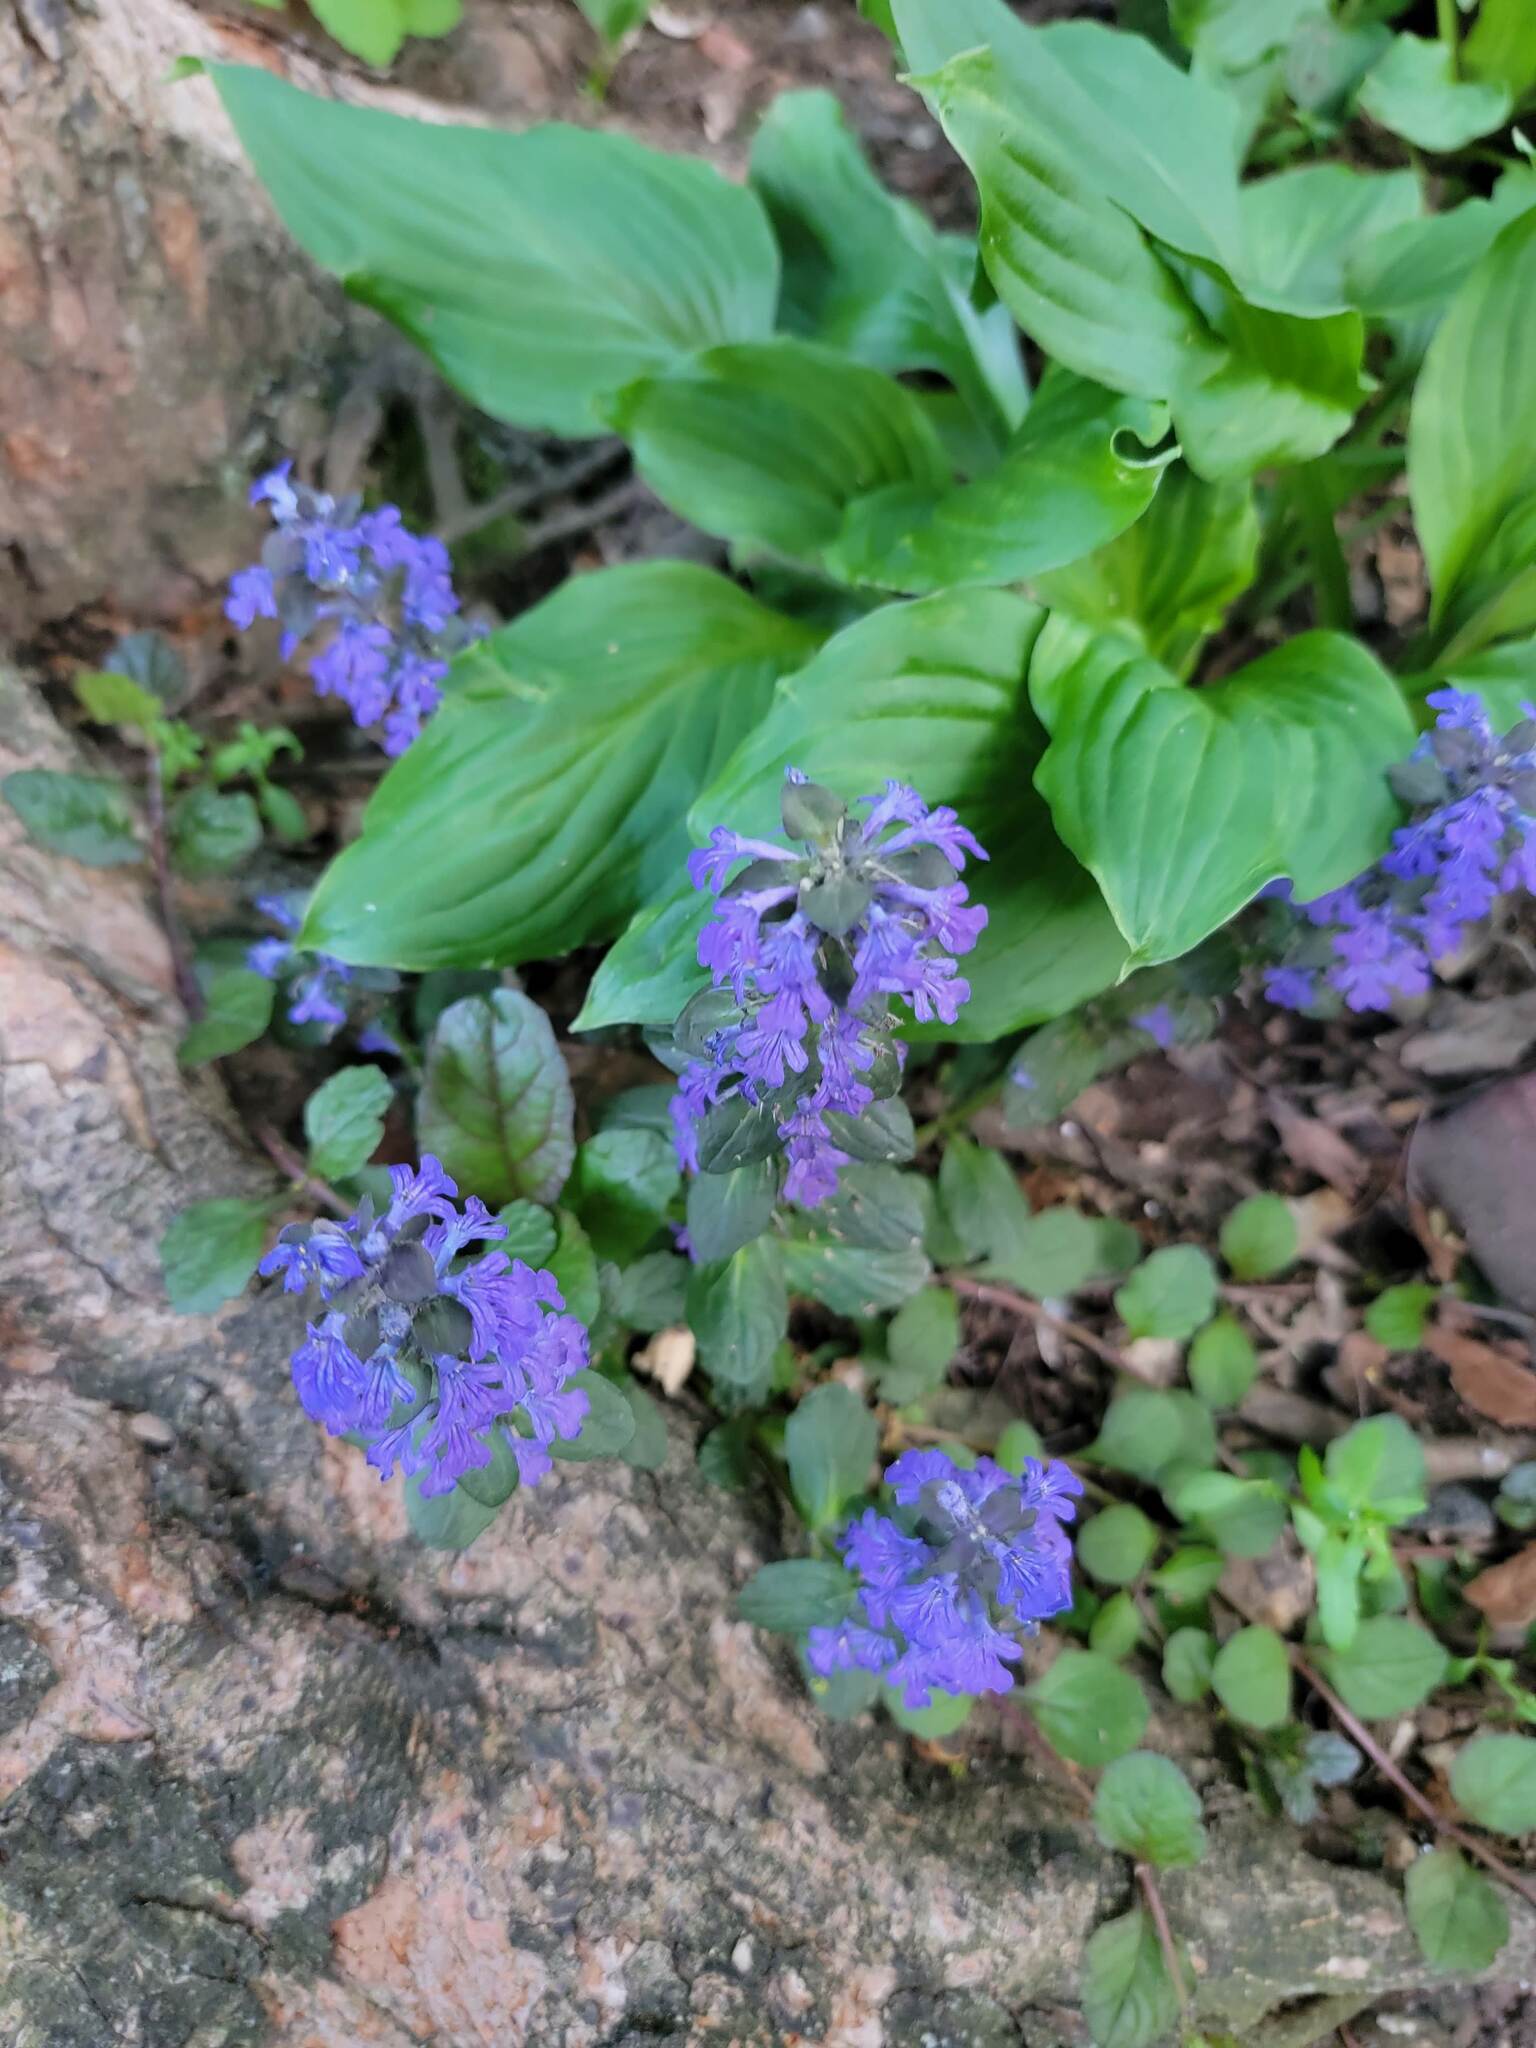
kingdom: Plantae
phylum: Tracheophyta
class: Magnoliopsida
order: Lamiales
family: Lamiaceae
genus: Ajuga
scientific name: Ajuga reptans
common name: Bugle
